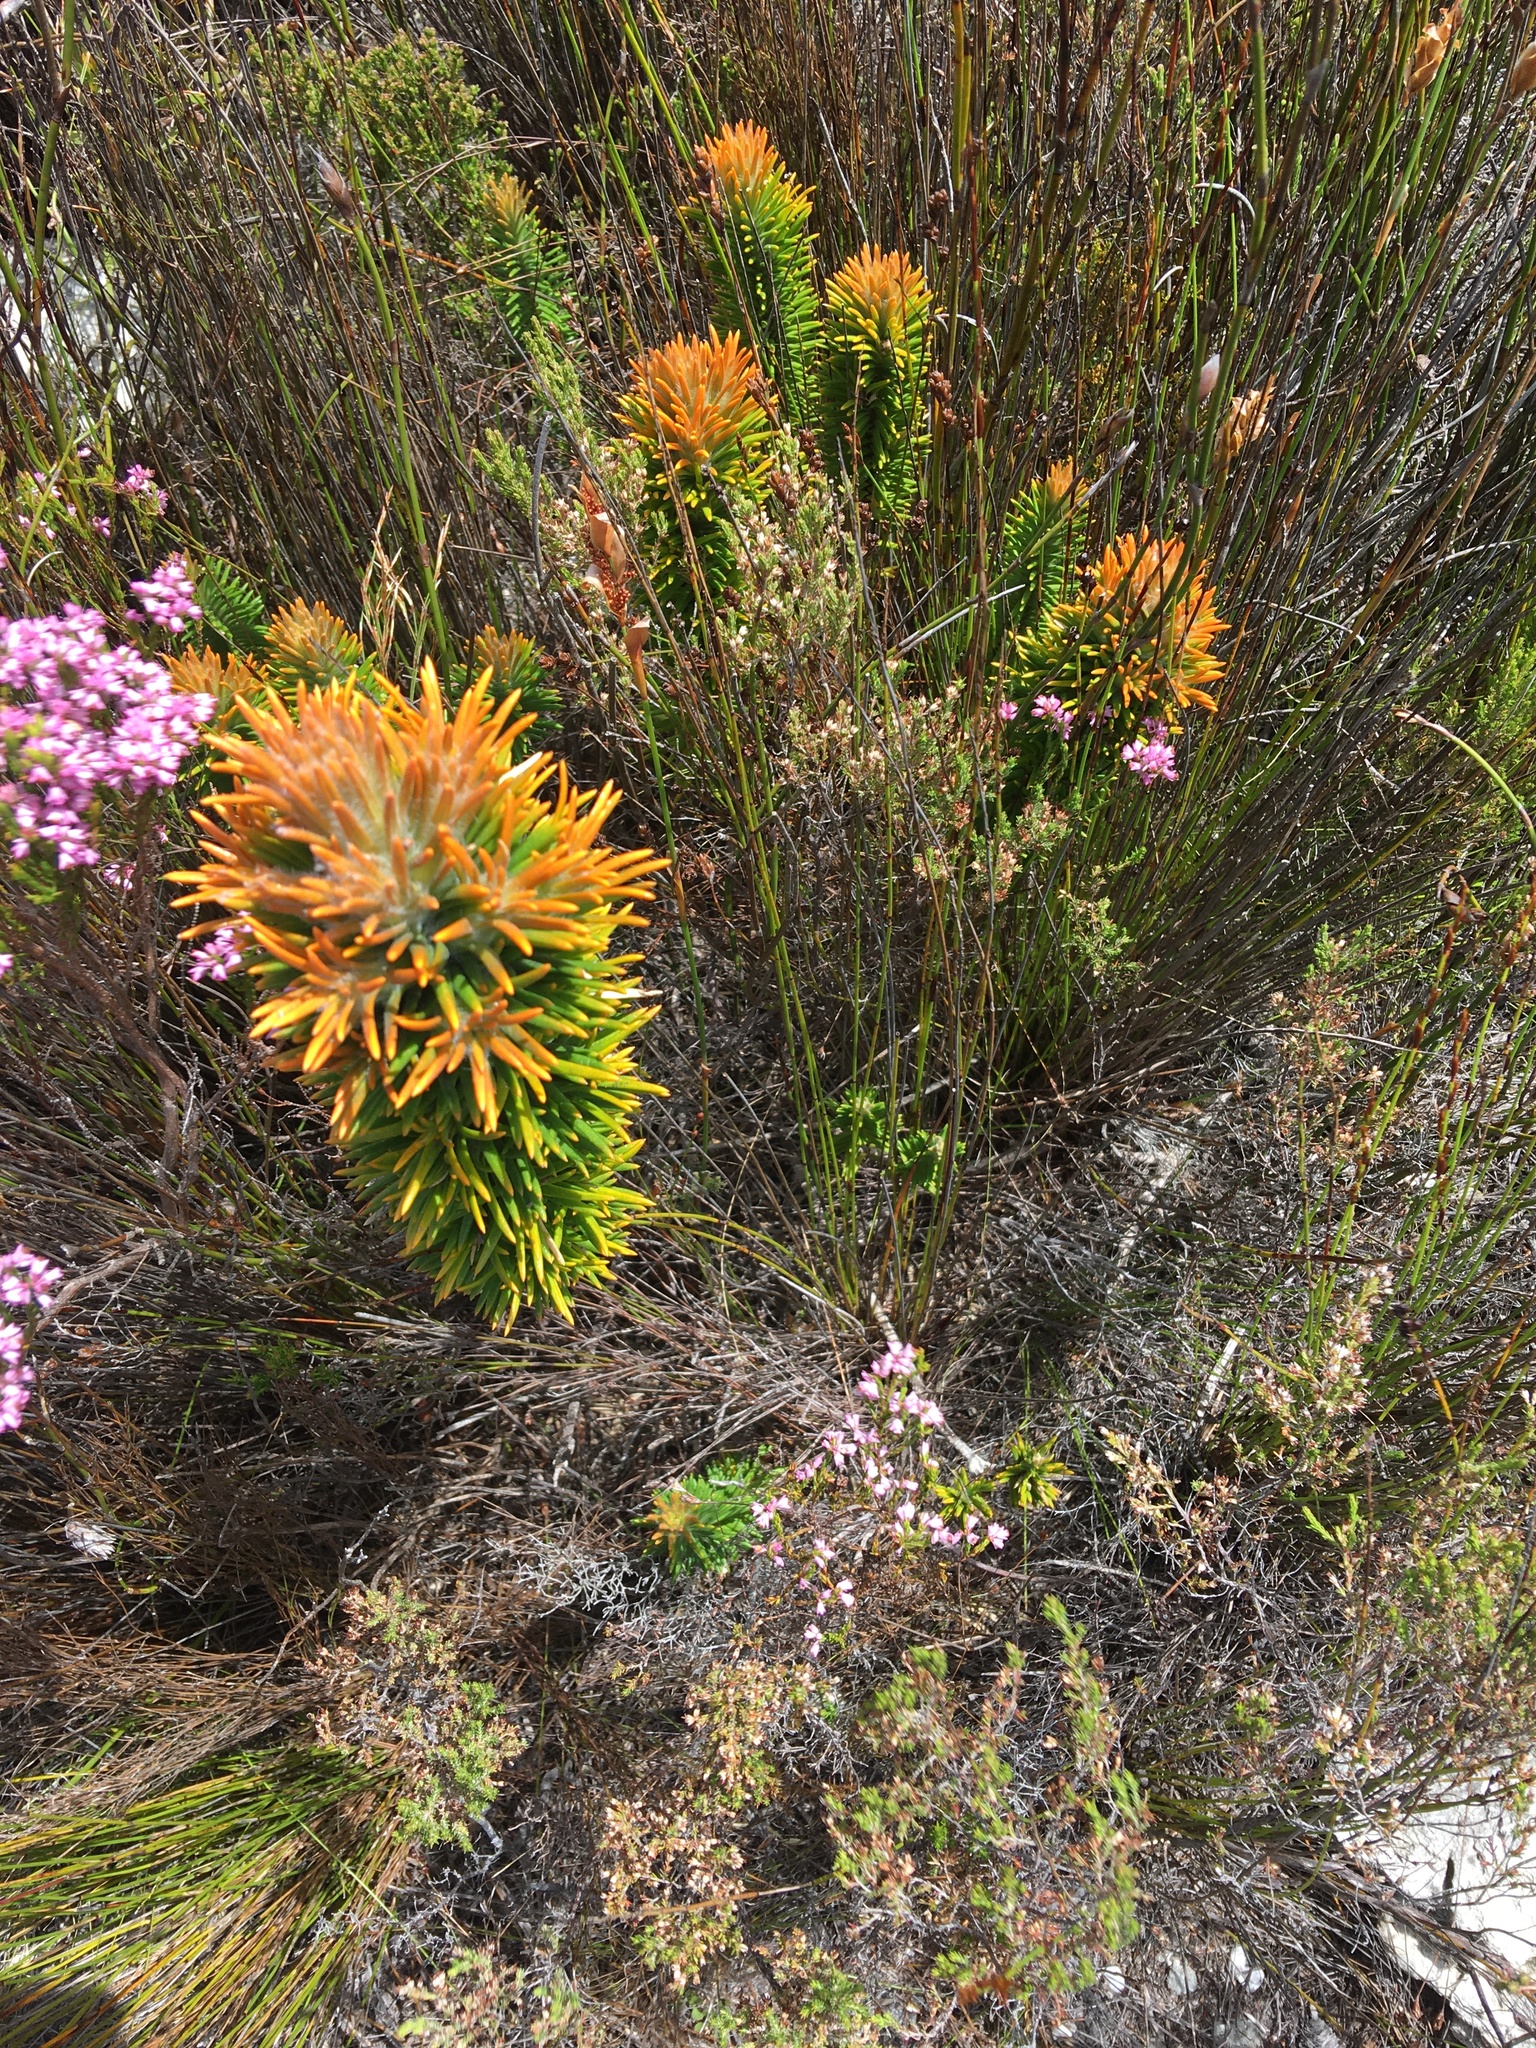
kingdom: Plantae
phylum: Tracheophyta
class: Magnoliopsida
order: Lamiales
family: Stilbaceae
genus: Retzia
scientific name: Retzia capensis
